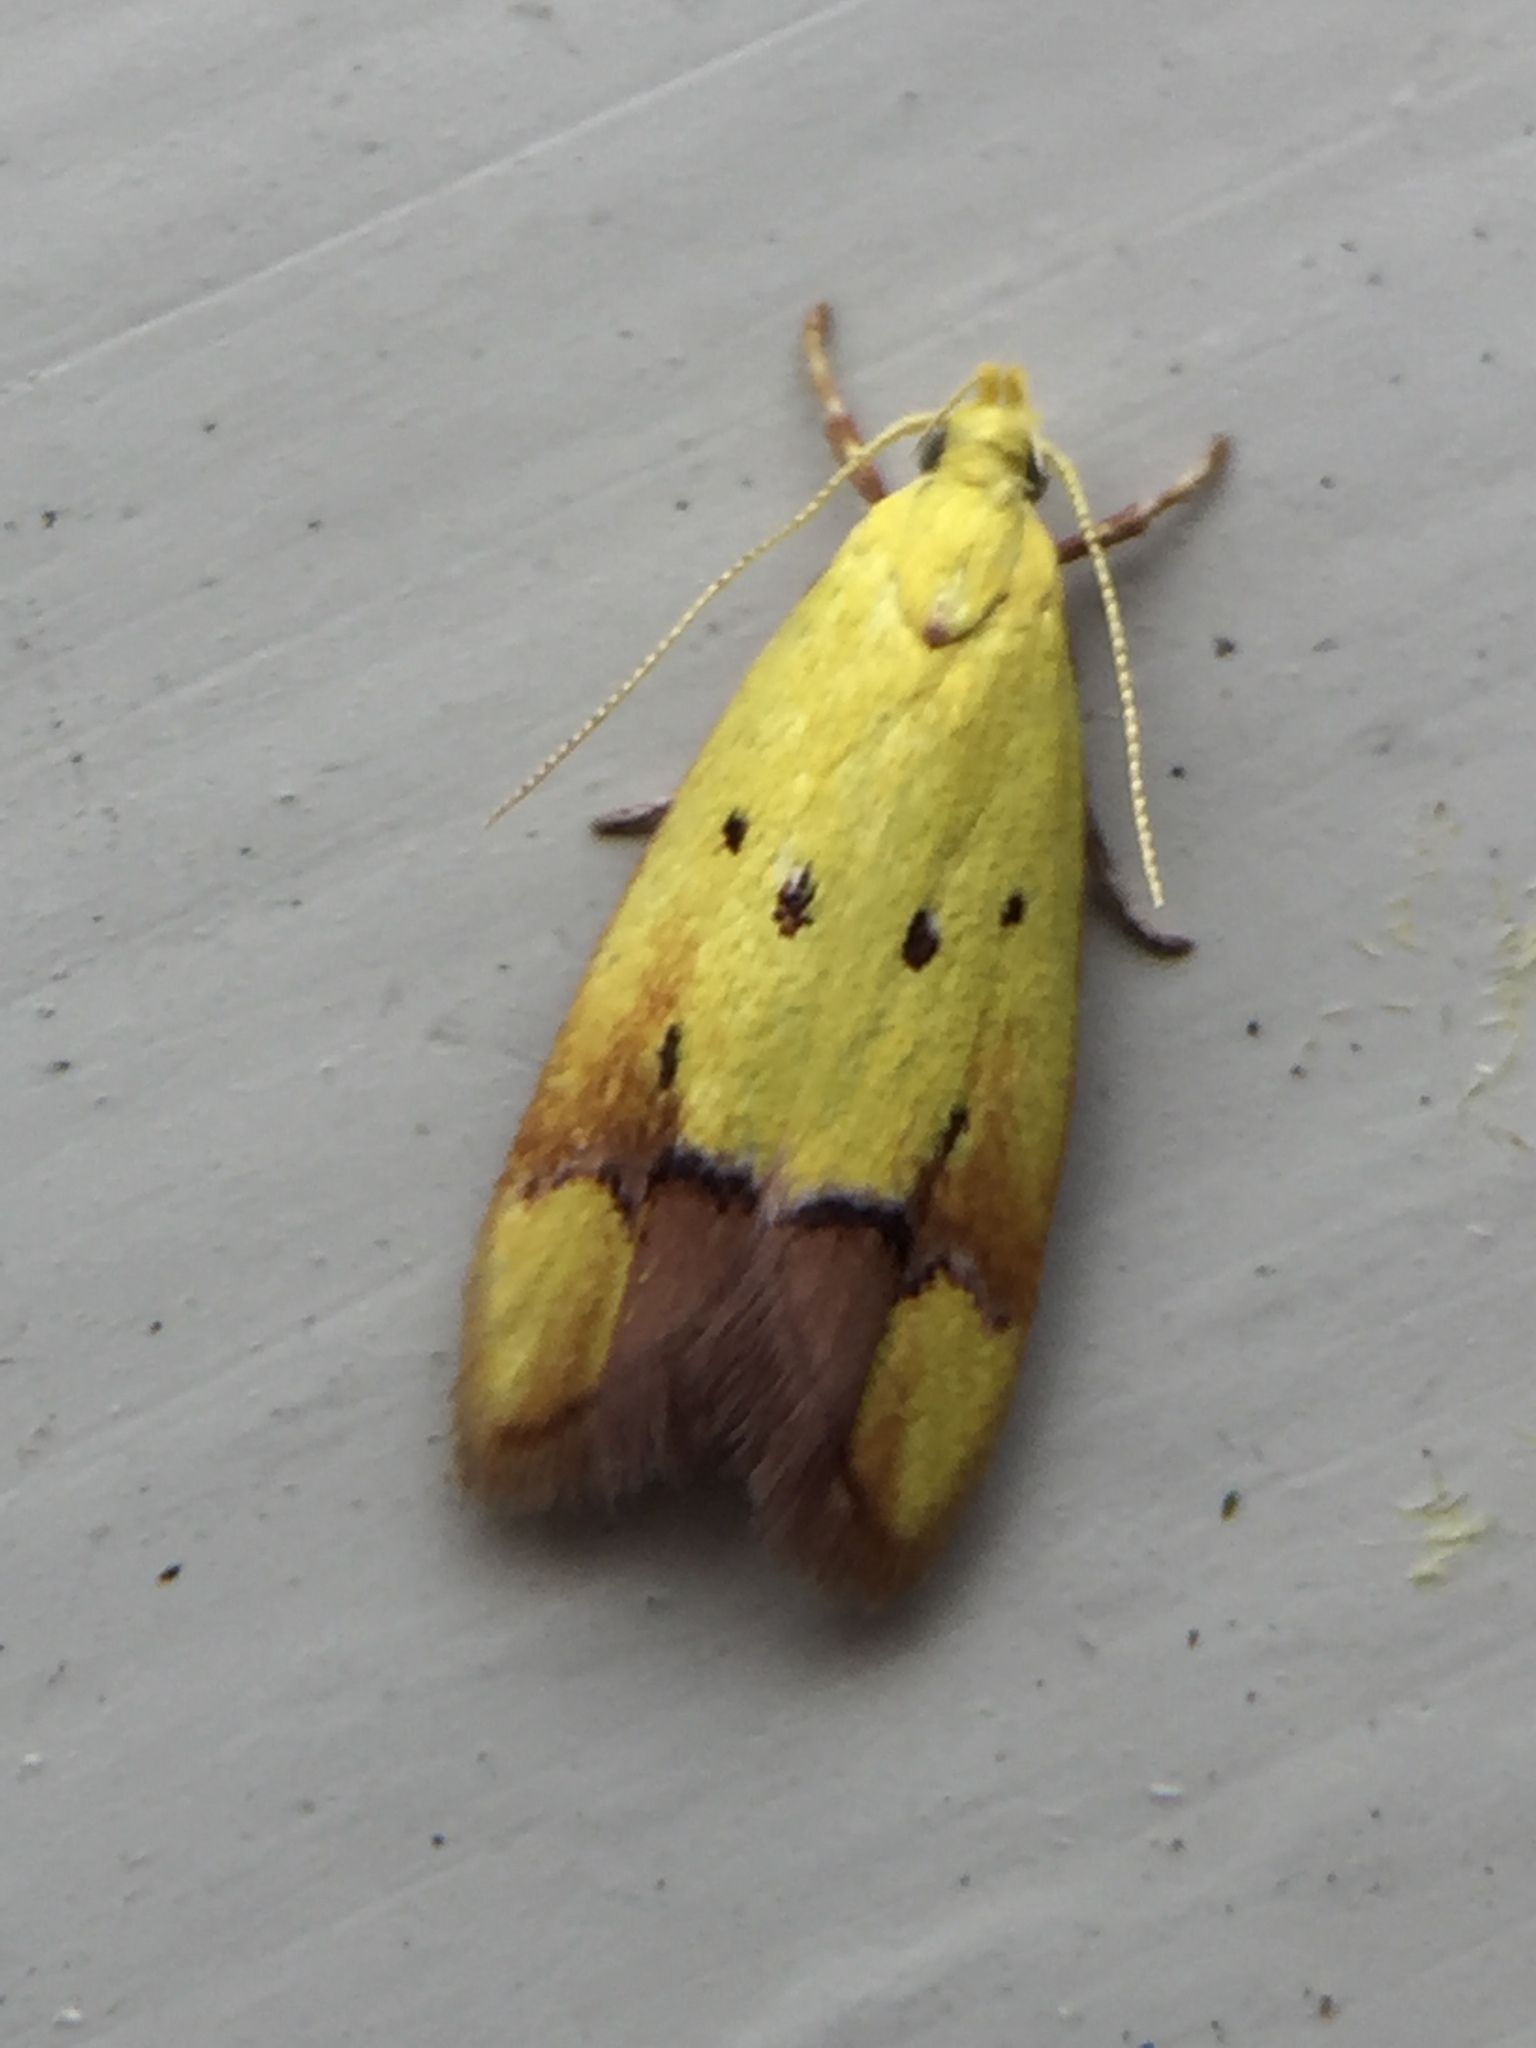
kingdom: Animalia
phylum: Arthropoda
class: Insecta
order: Lepidoptera
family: Oecophoridae
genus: Gymnobathra
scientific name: Gymnobathra flavidella
